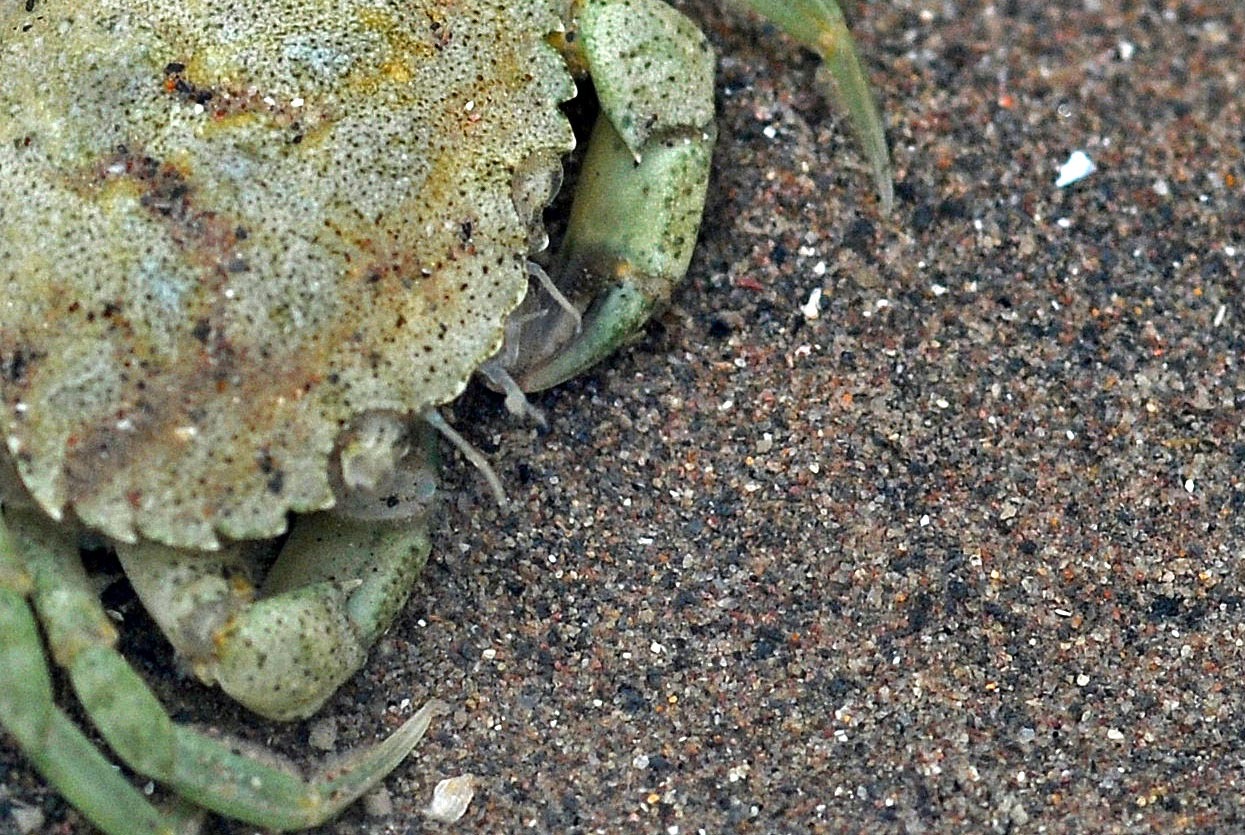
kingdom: Animalia
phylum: Arthropoda
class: Malacostraca
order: Decapoda
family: Carcinidae
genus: Carcinus
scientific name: Carcinus maenas
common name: European green crab
